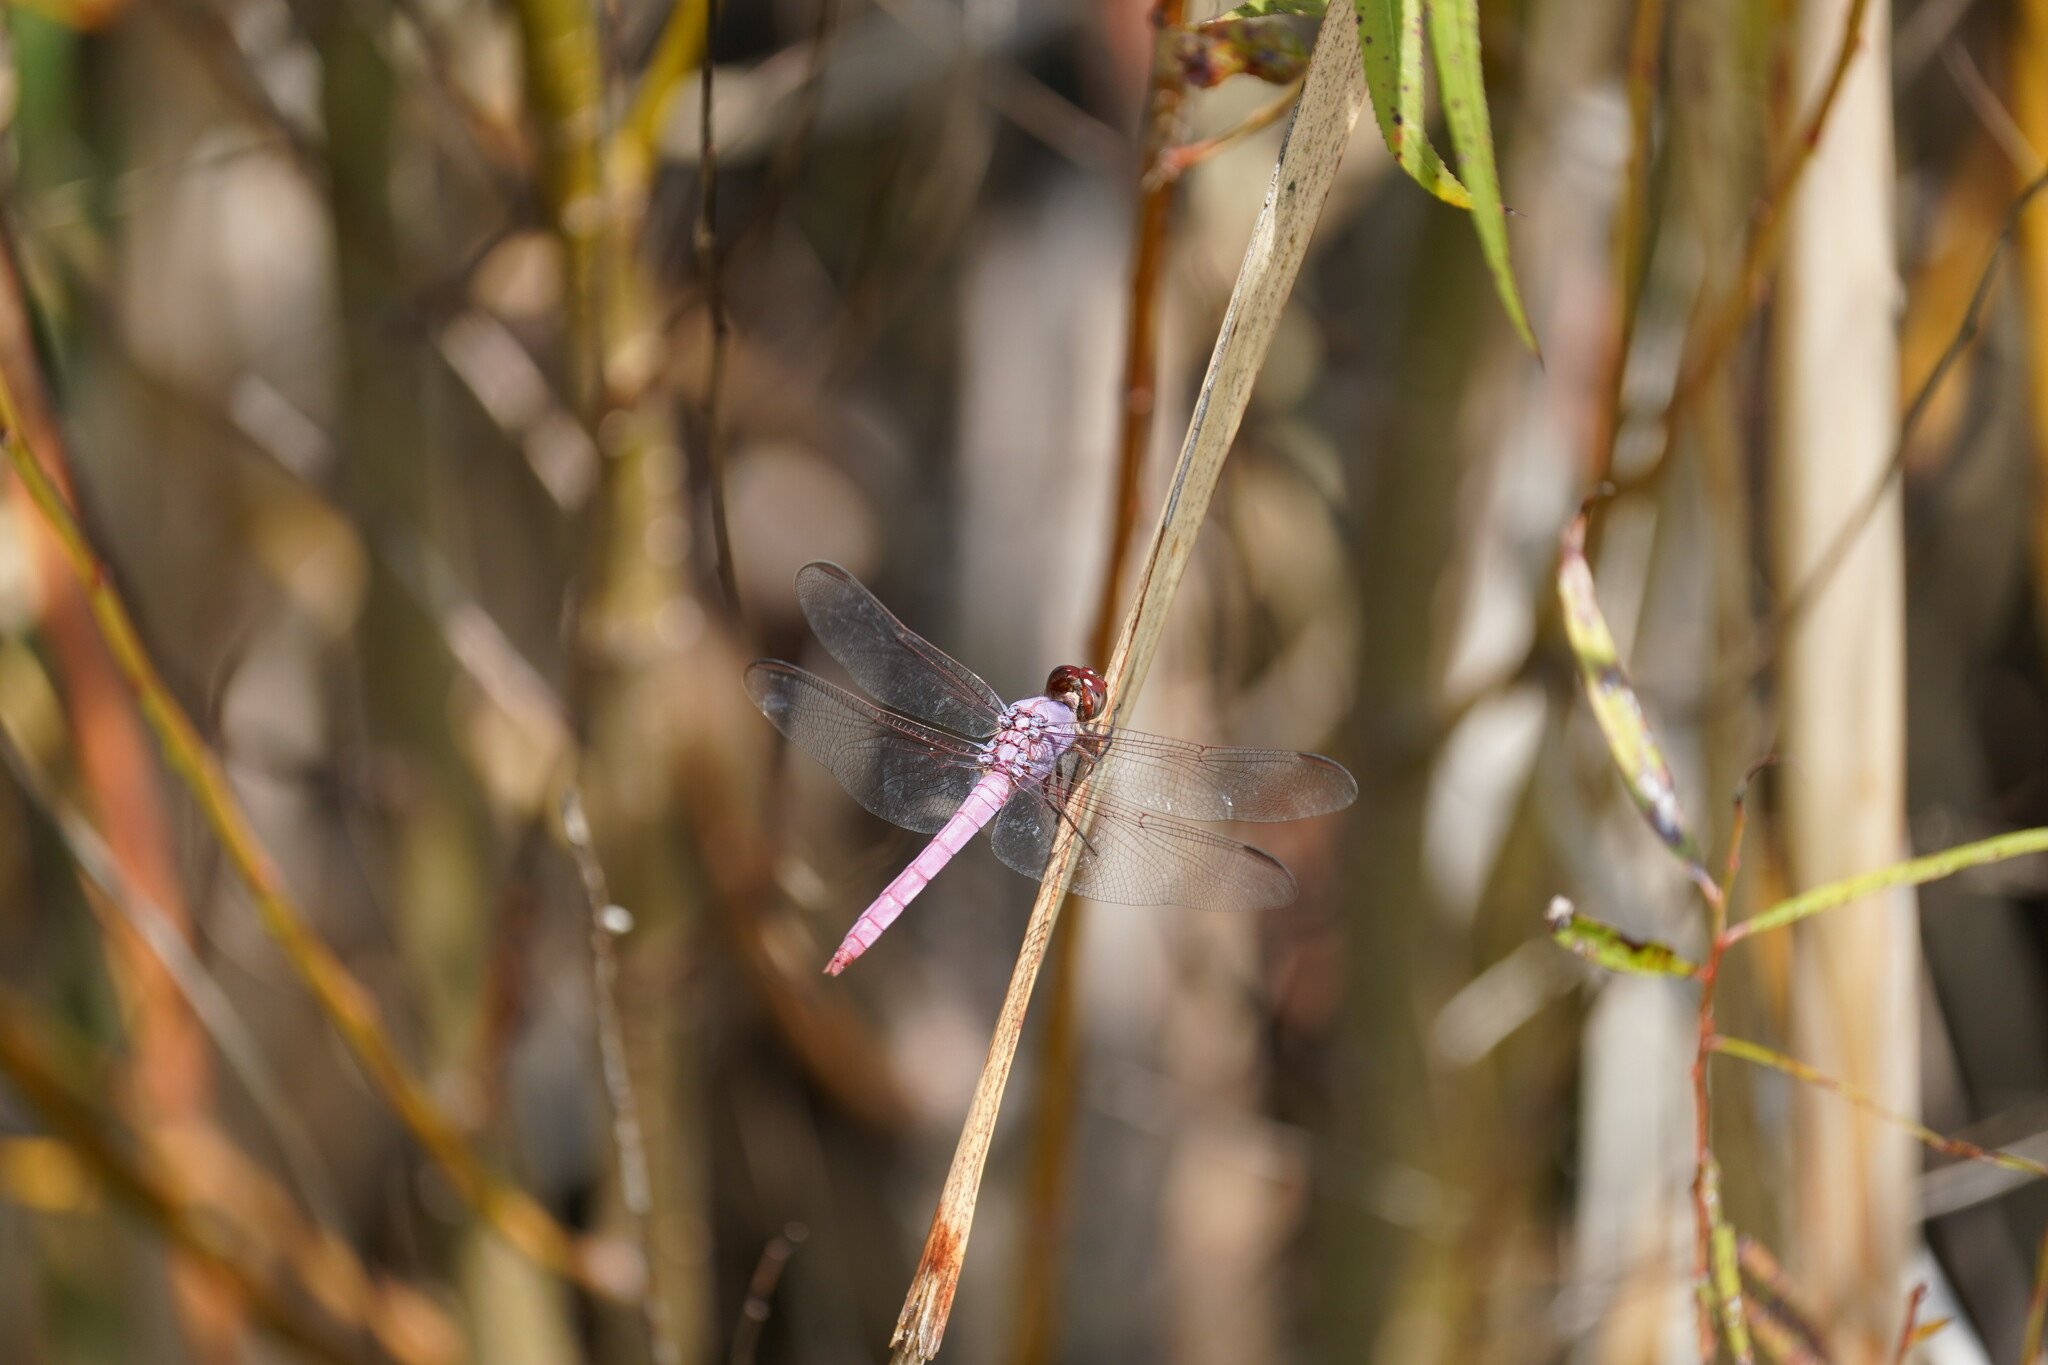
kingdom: Animalia
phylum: Arthropoda
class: Insecta
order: Odonata
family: Libellulidae
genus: Orthemis
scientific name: Orthemis ferruginea
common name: Roseate skimmer
